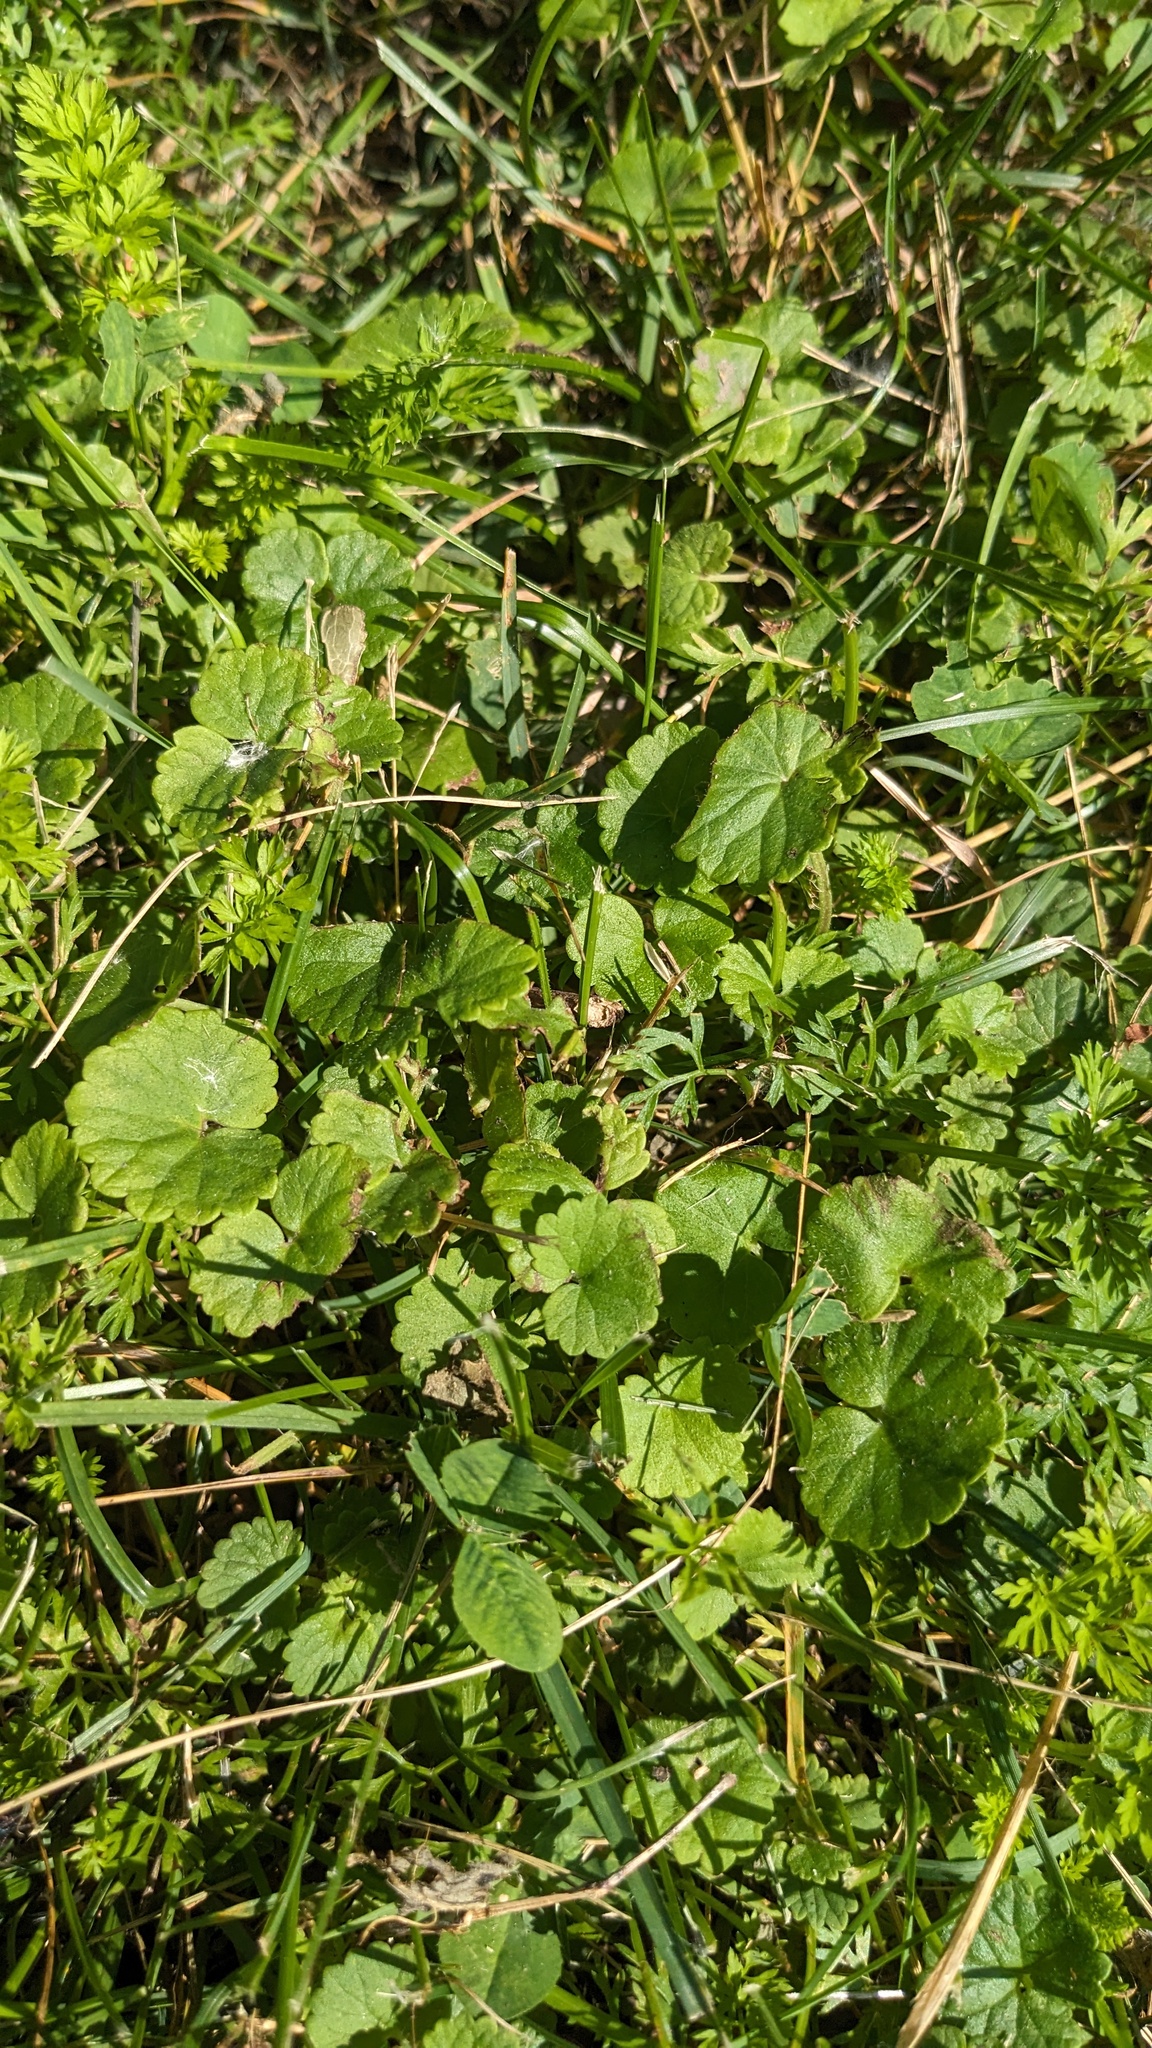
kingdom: Plantae
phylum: Tracheophyta
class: Magnoliopsida
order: Lamiales
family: Lamiaceae
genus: Glechoma
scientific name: Glechoma hederacea
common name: Ground ivy
